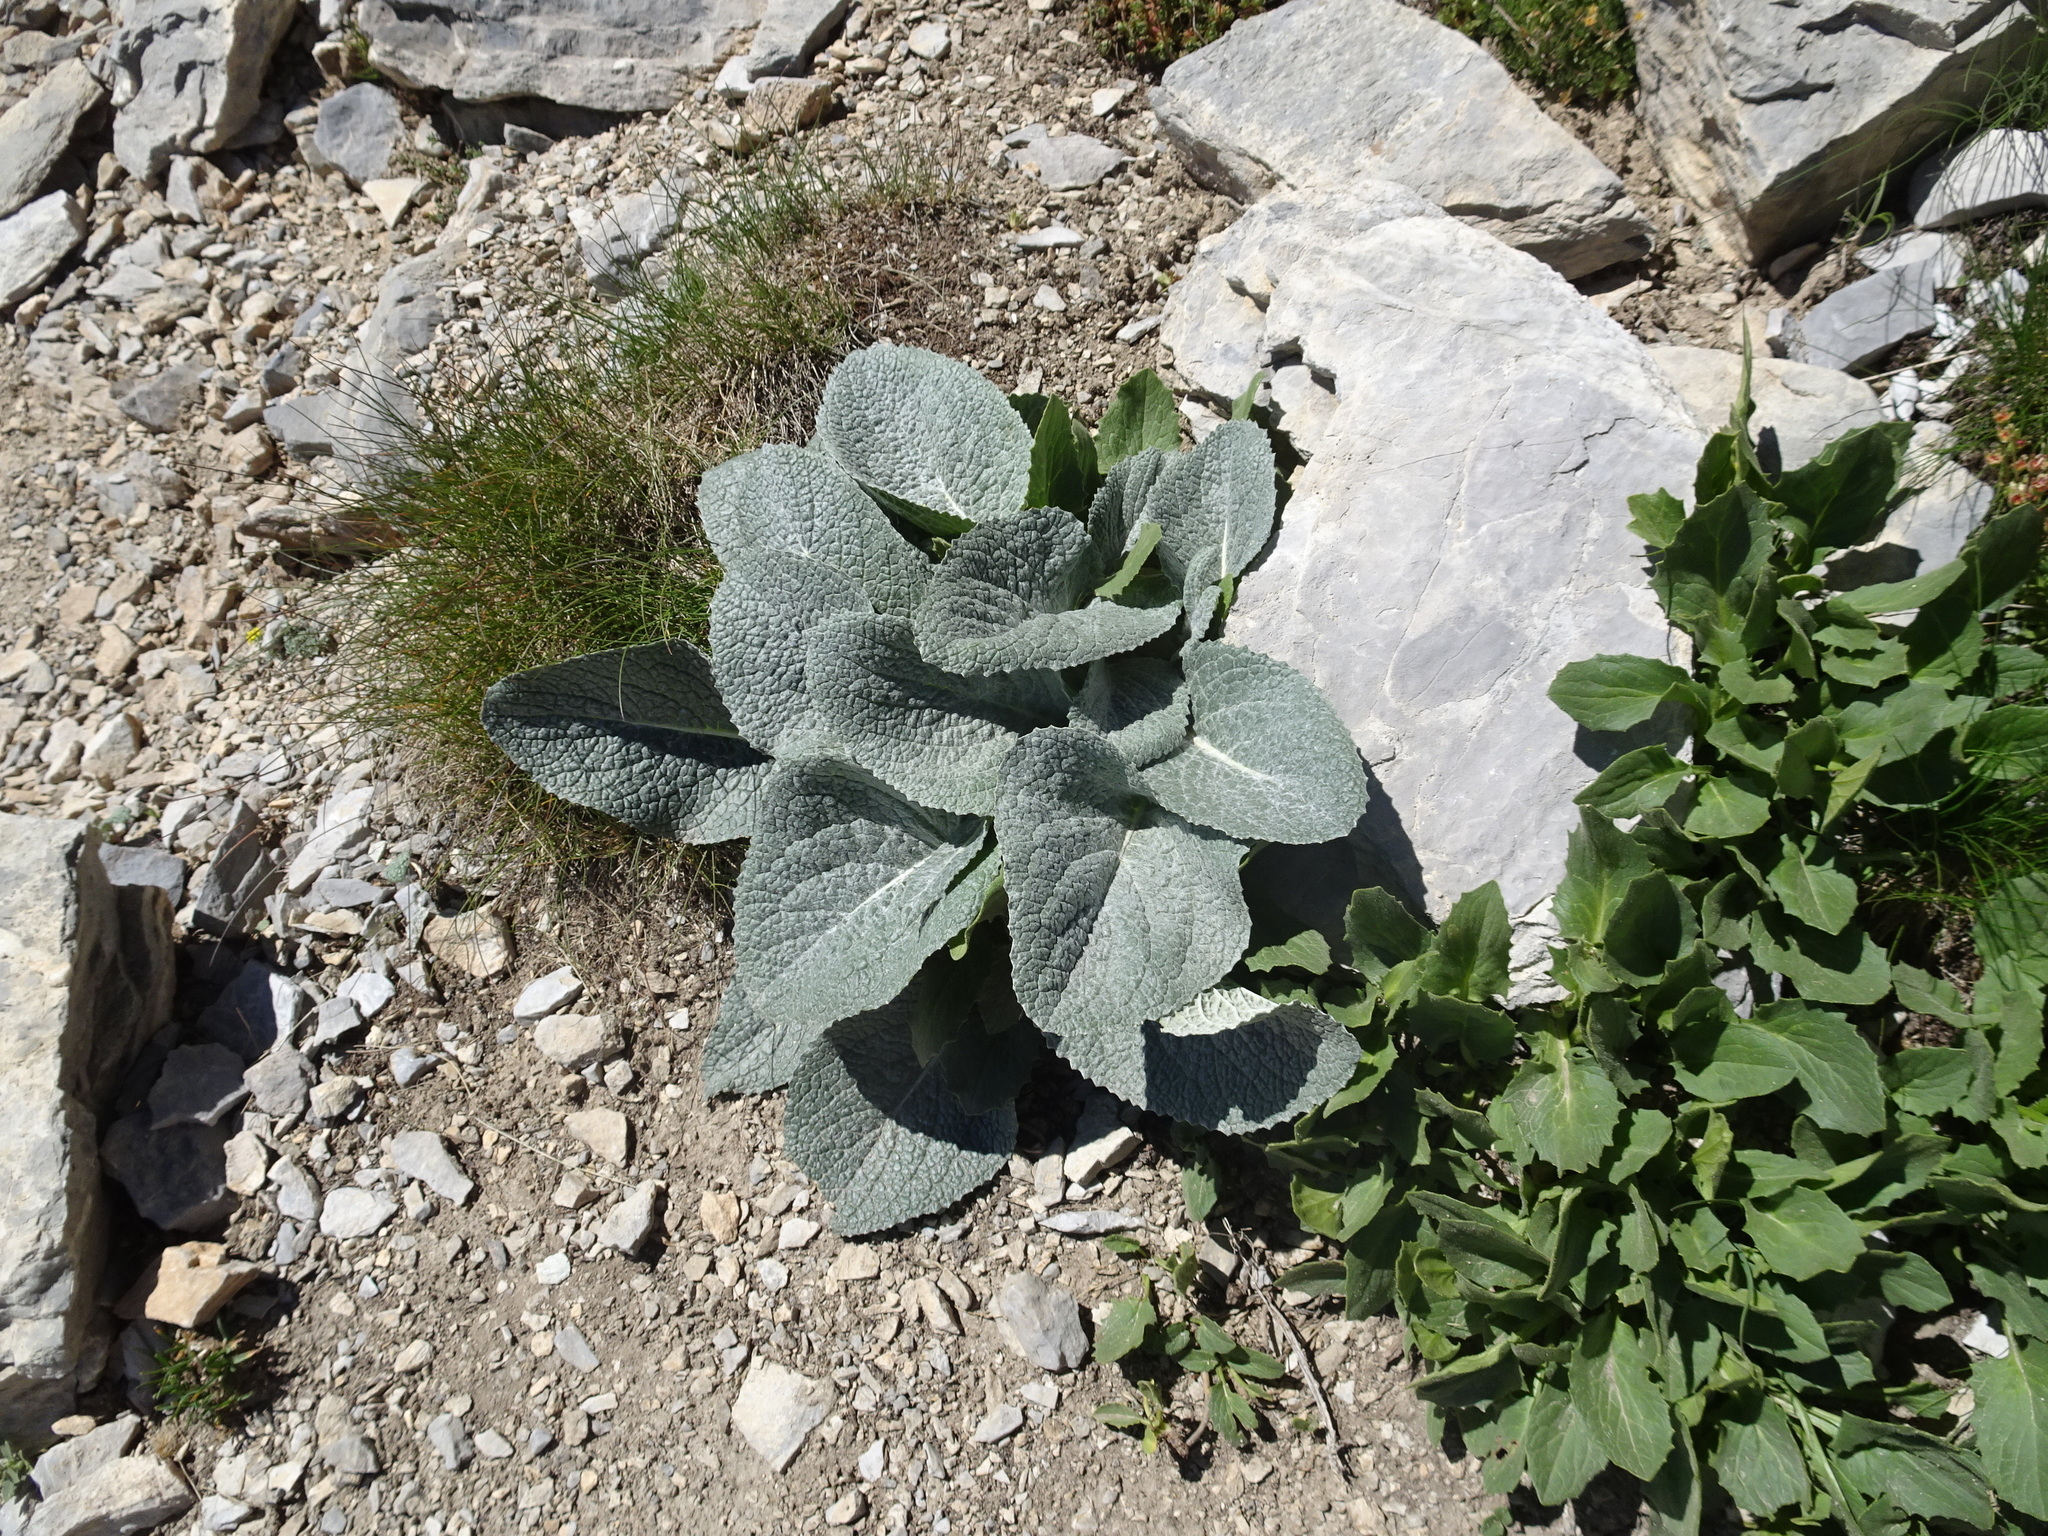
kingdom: Plantae
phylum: Tracheophyta
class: Magnoliopsida
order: Asterales
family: Asteraceae
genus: Berardia
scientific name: Berardia lanuginosa
